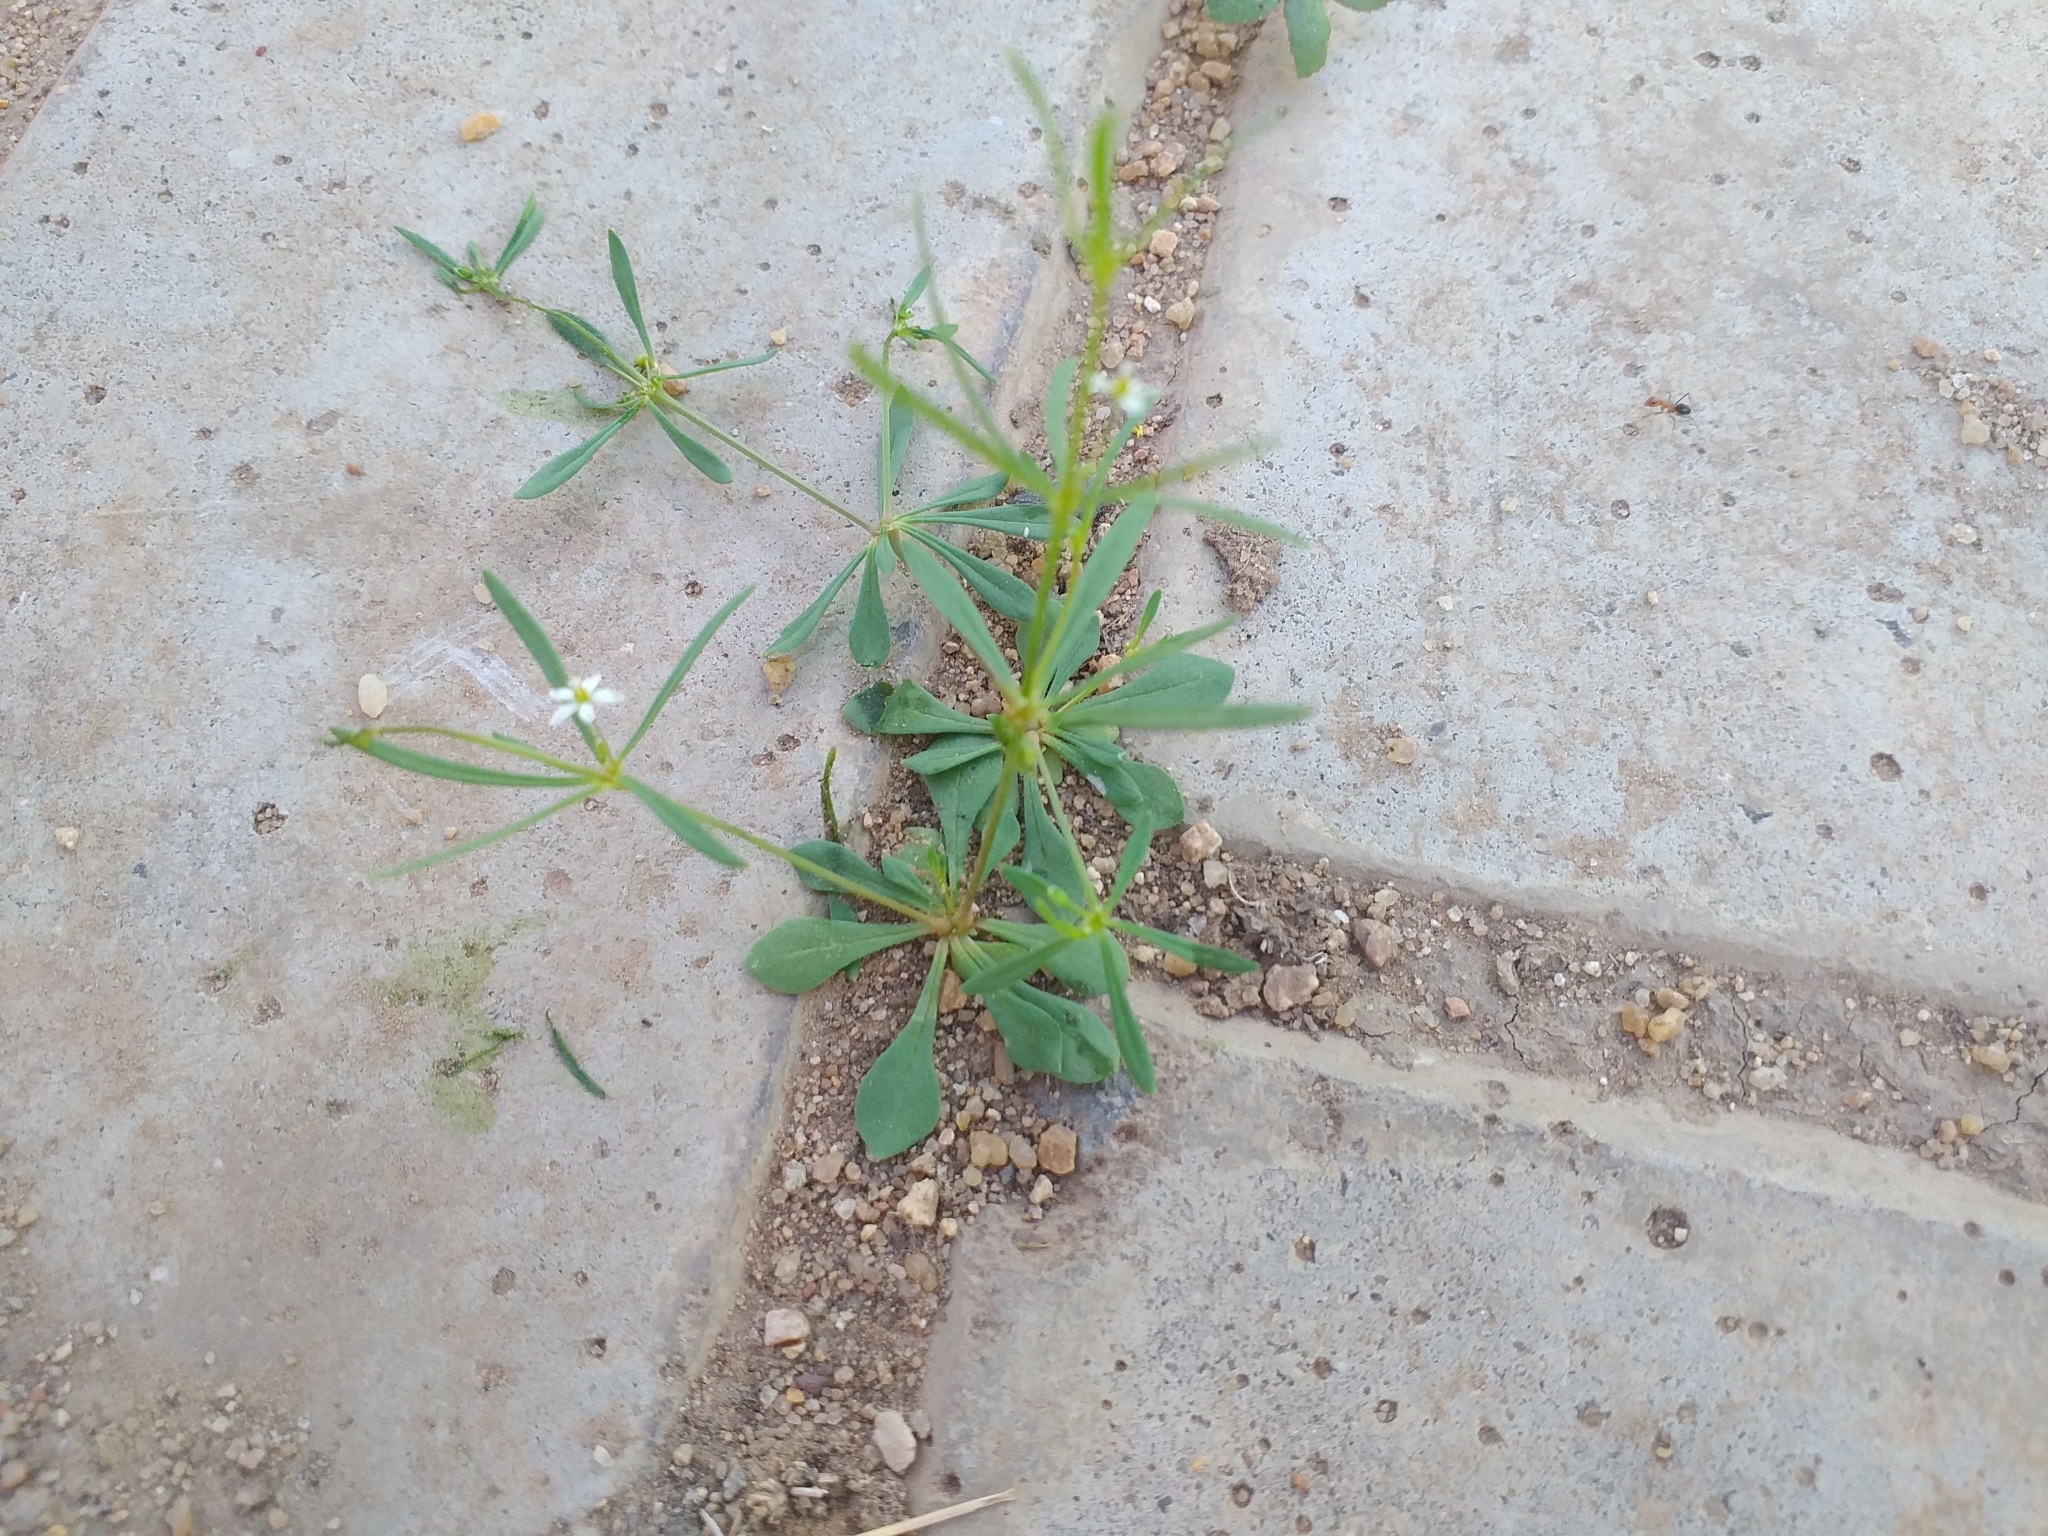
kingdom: Plantae
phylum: Tracheophyta
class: Magnoliopsida
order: Caryophyllales
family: Molluginaceae
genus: Mollugo
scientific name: Mollugo verticillata
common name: Green carpetweed
